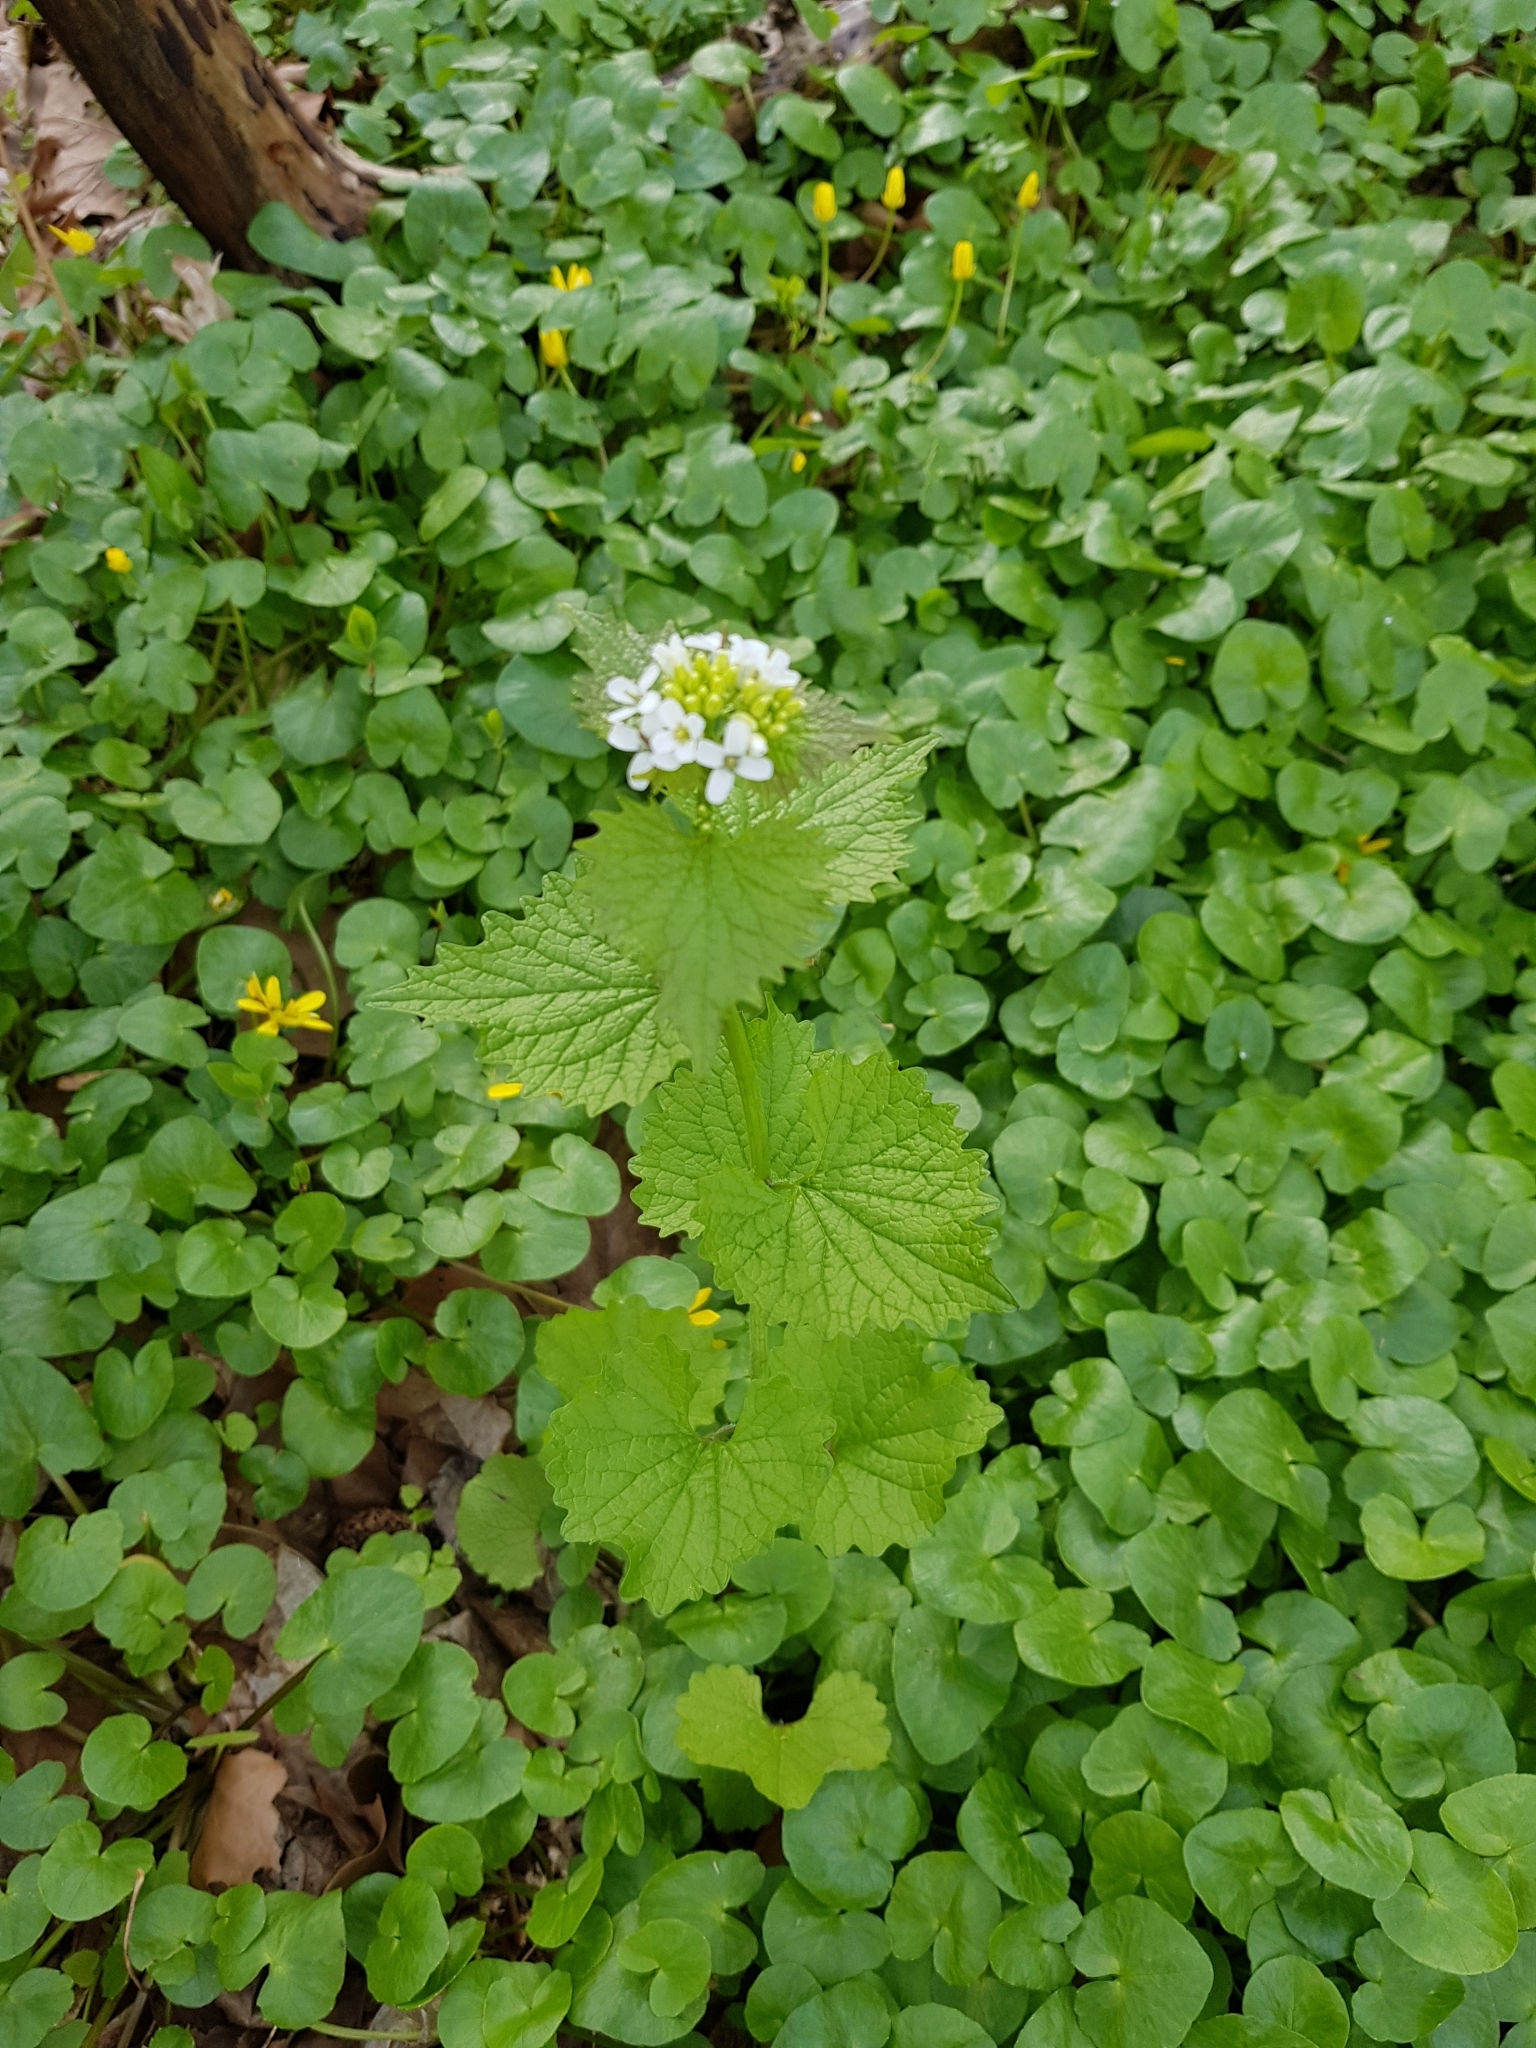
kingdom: Plantae
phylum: Tracheophyta
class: Magnoliopsida
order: Brassicales
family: Brassicaceae
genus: Alliaria
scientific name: Alliaria petiolata
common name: Garlic mustard
